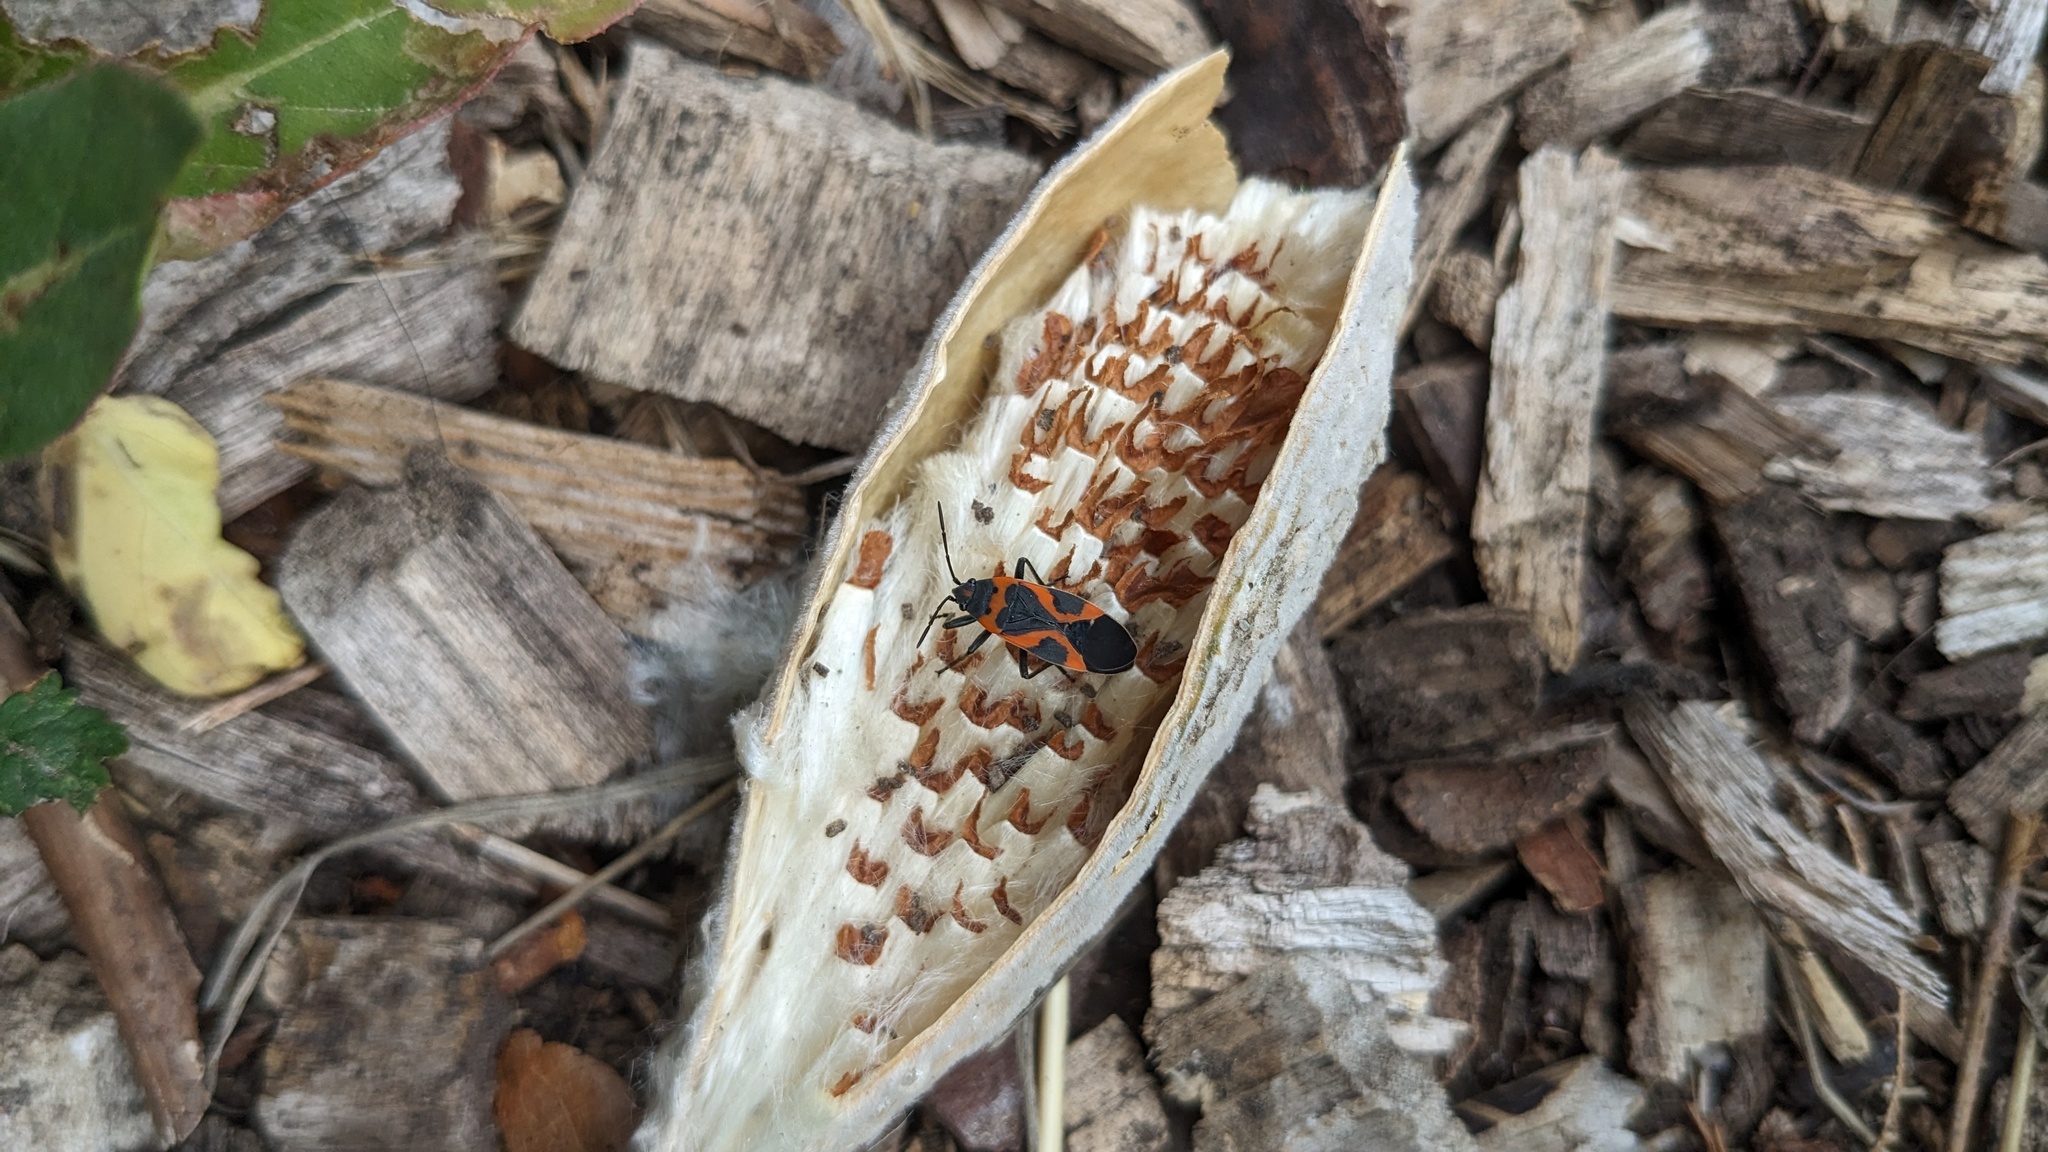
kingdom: Animalia
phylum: Arthropoda
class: Insecta
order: Hemiptera
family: Lygaeidae
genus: Lygaeus
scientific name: Lygaeus kalmii
